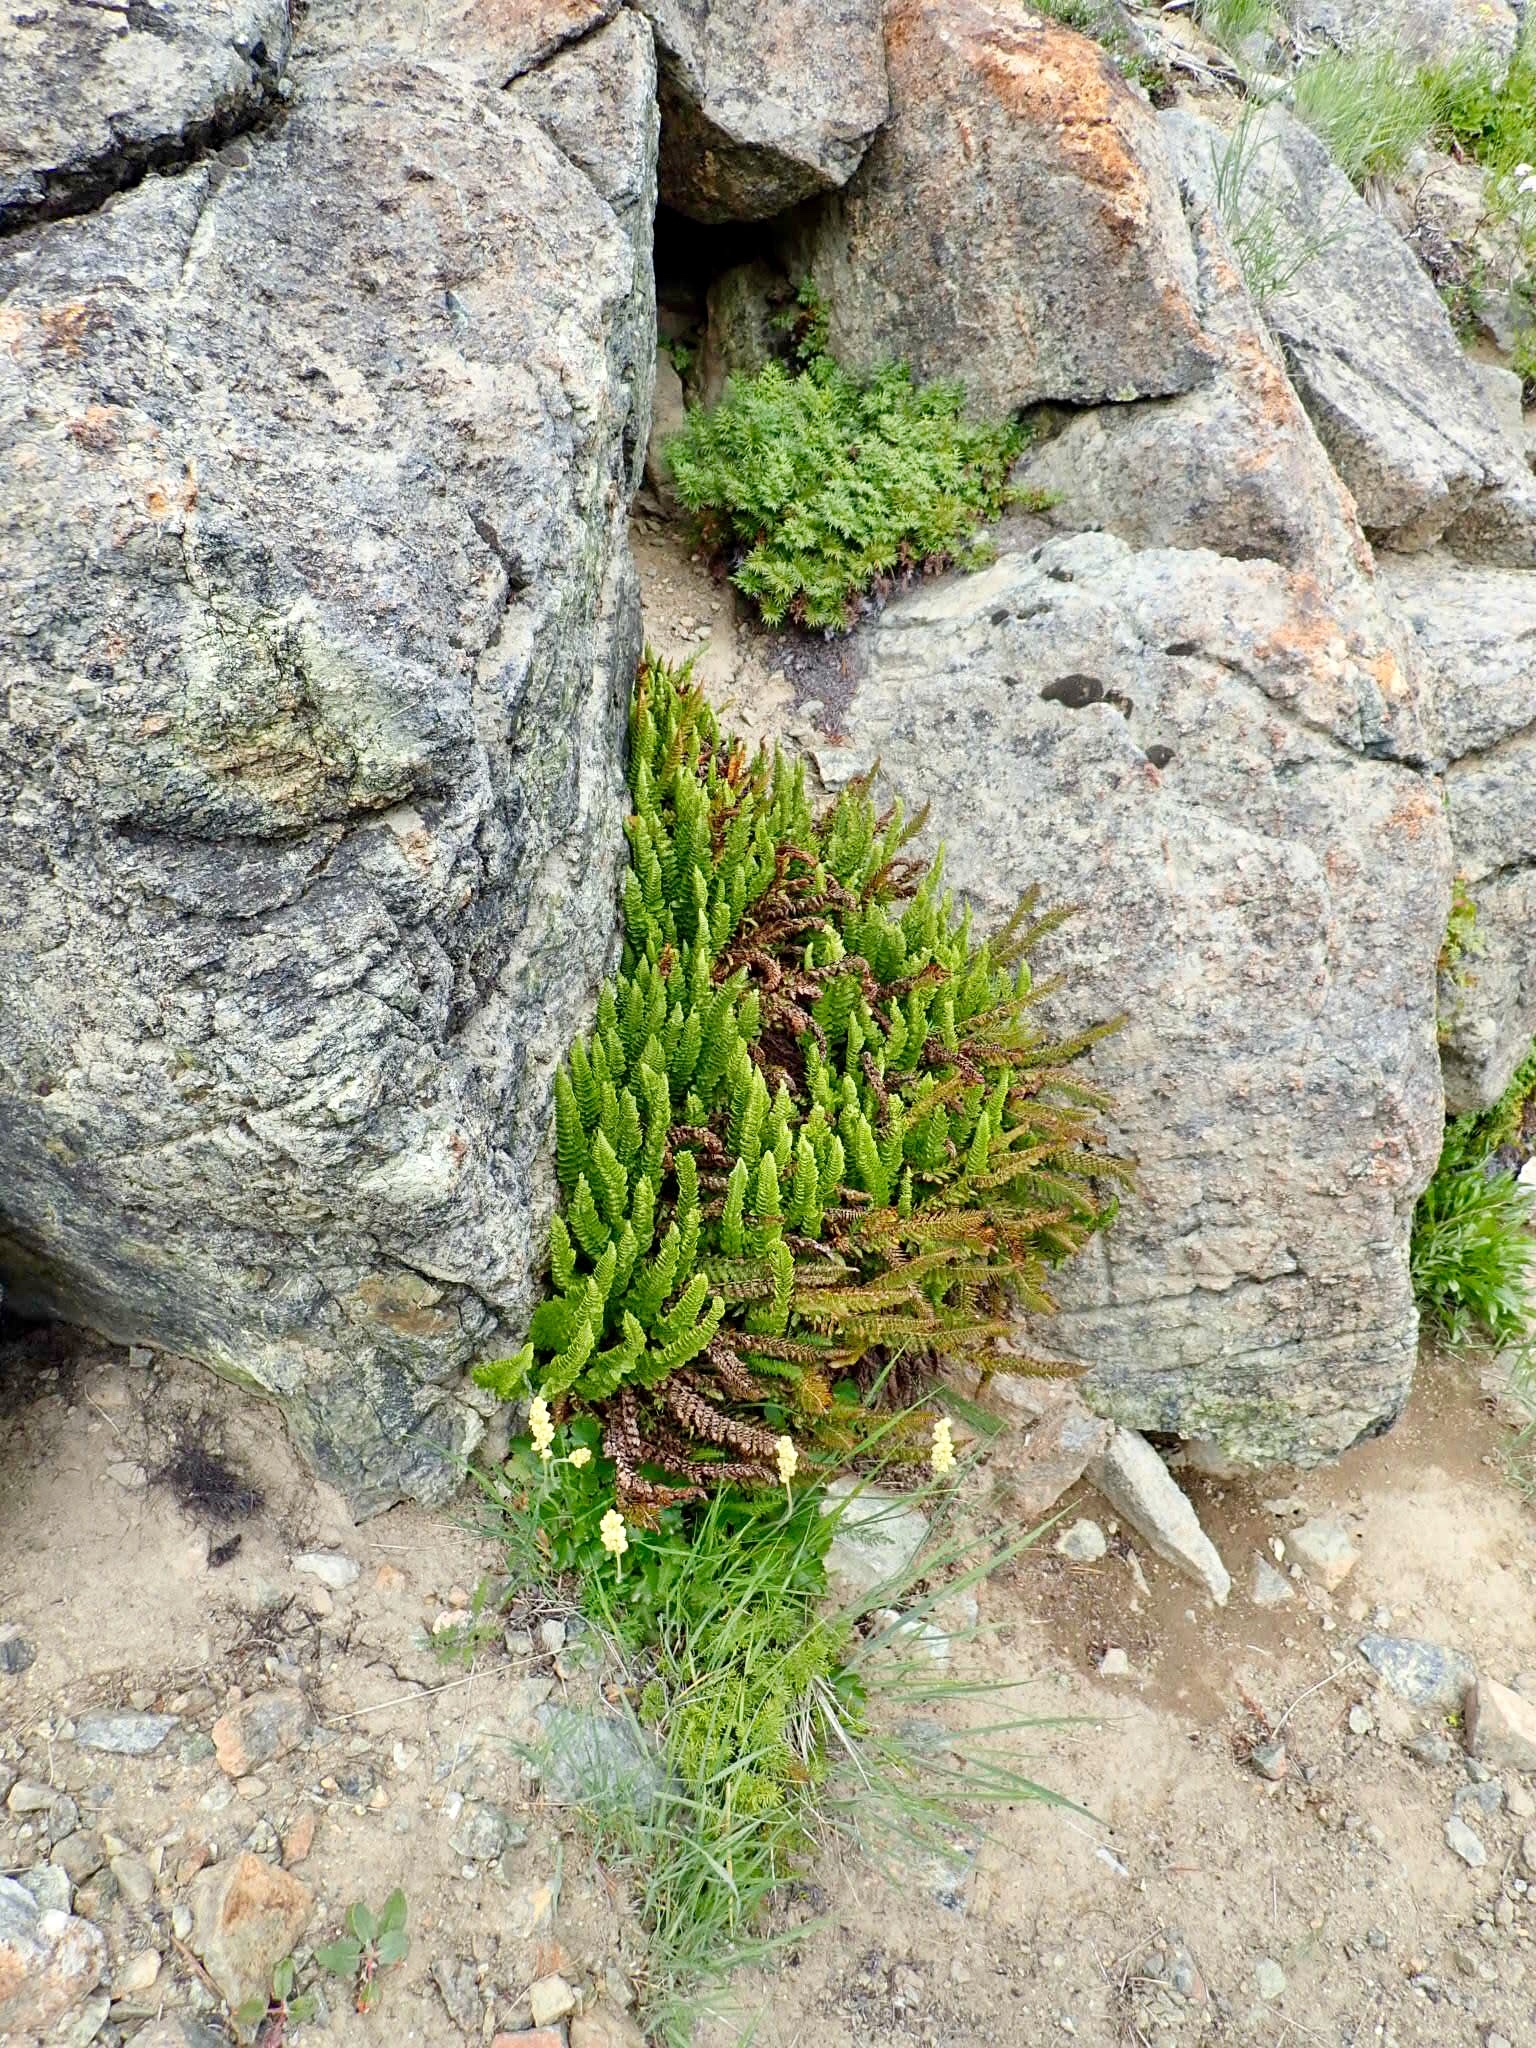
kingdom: Plantae
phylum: Tracheophyta
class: Polypodiopsida
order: Polypodiales
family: Pteridaceae
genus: Aspidotis
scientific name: Aspidotis densa
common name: Indian's dream
